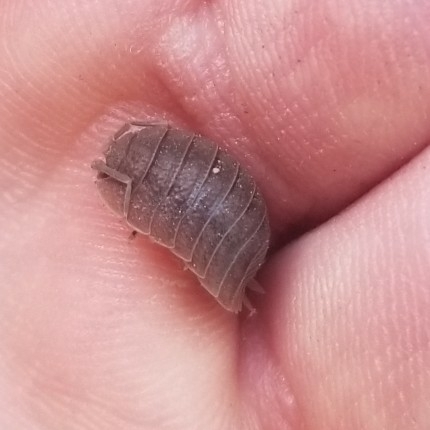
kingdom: Animalia
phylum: Arthropoda
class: Malacostraca
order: Isopoda
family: Porcellionidae
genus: Porcellio
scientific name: Porcellio dilatatus
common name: Isopod
